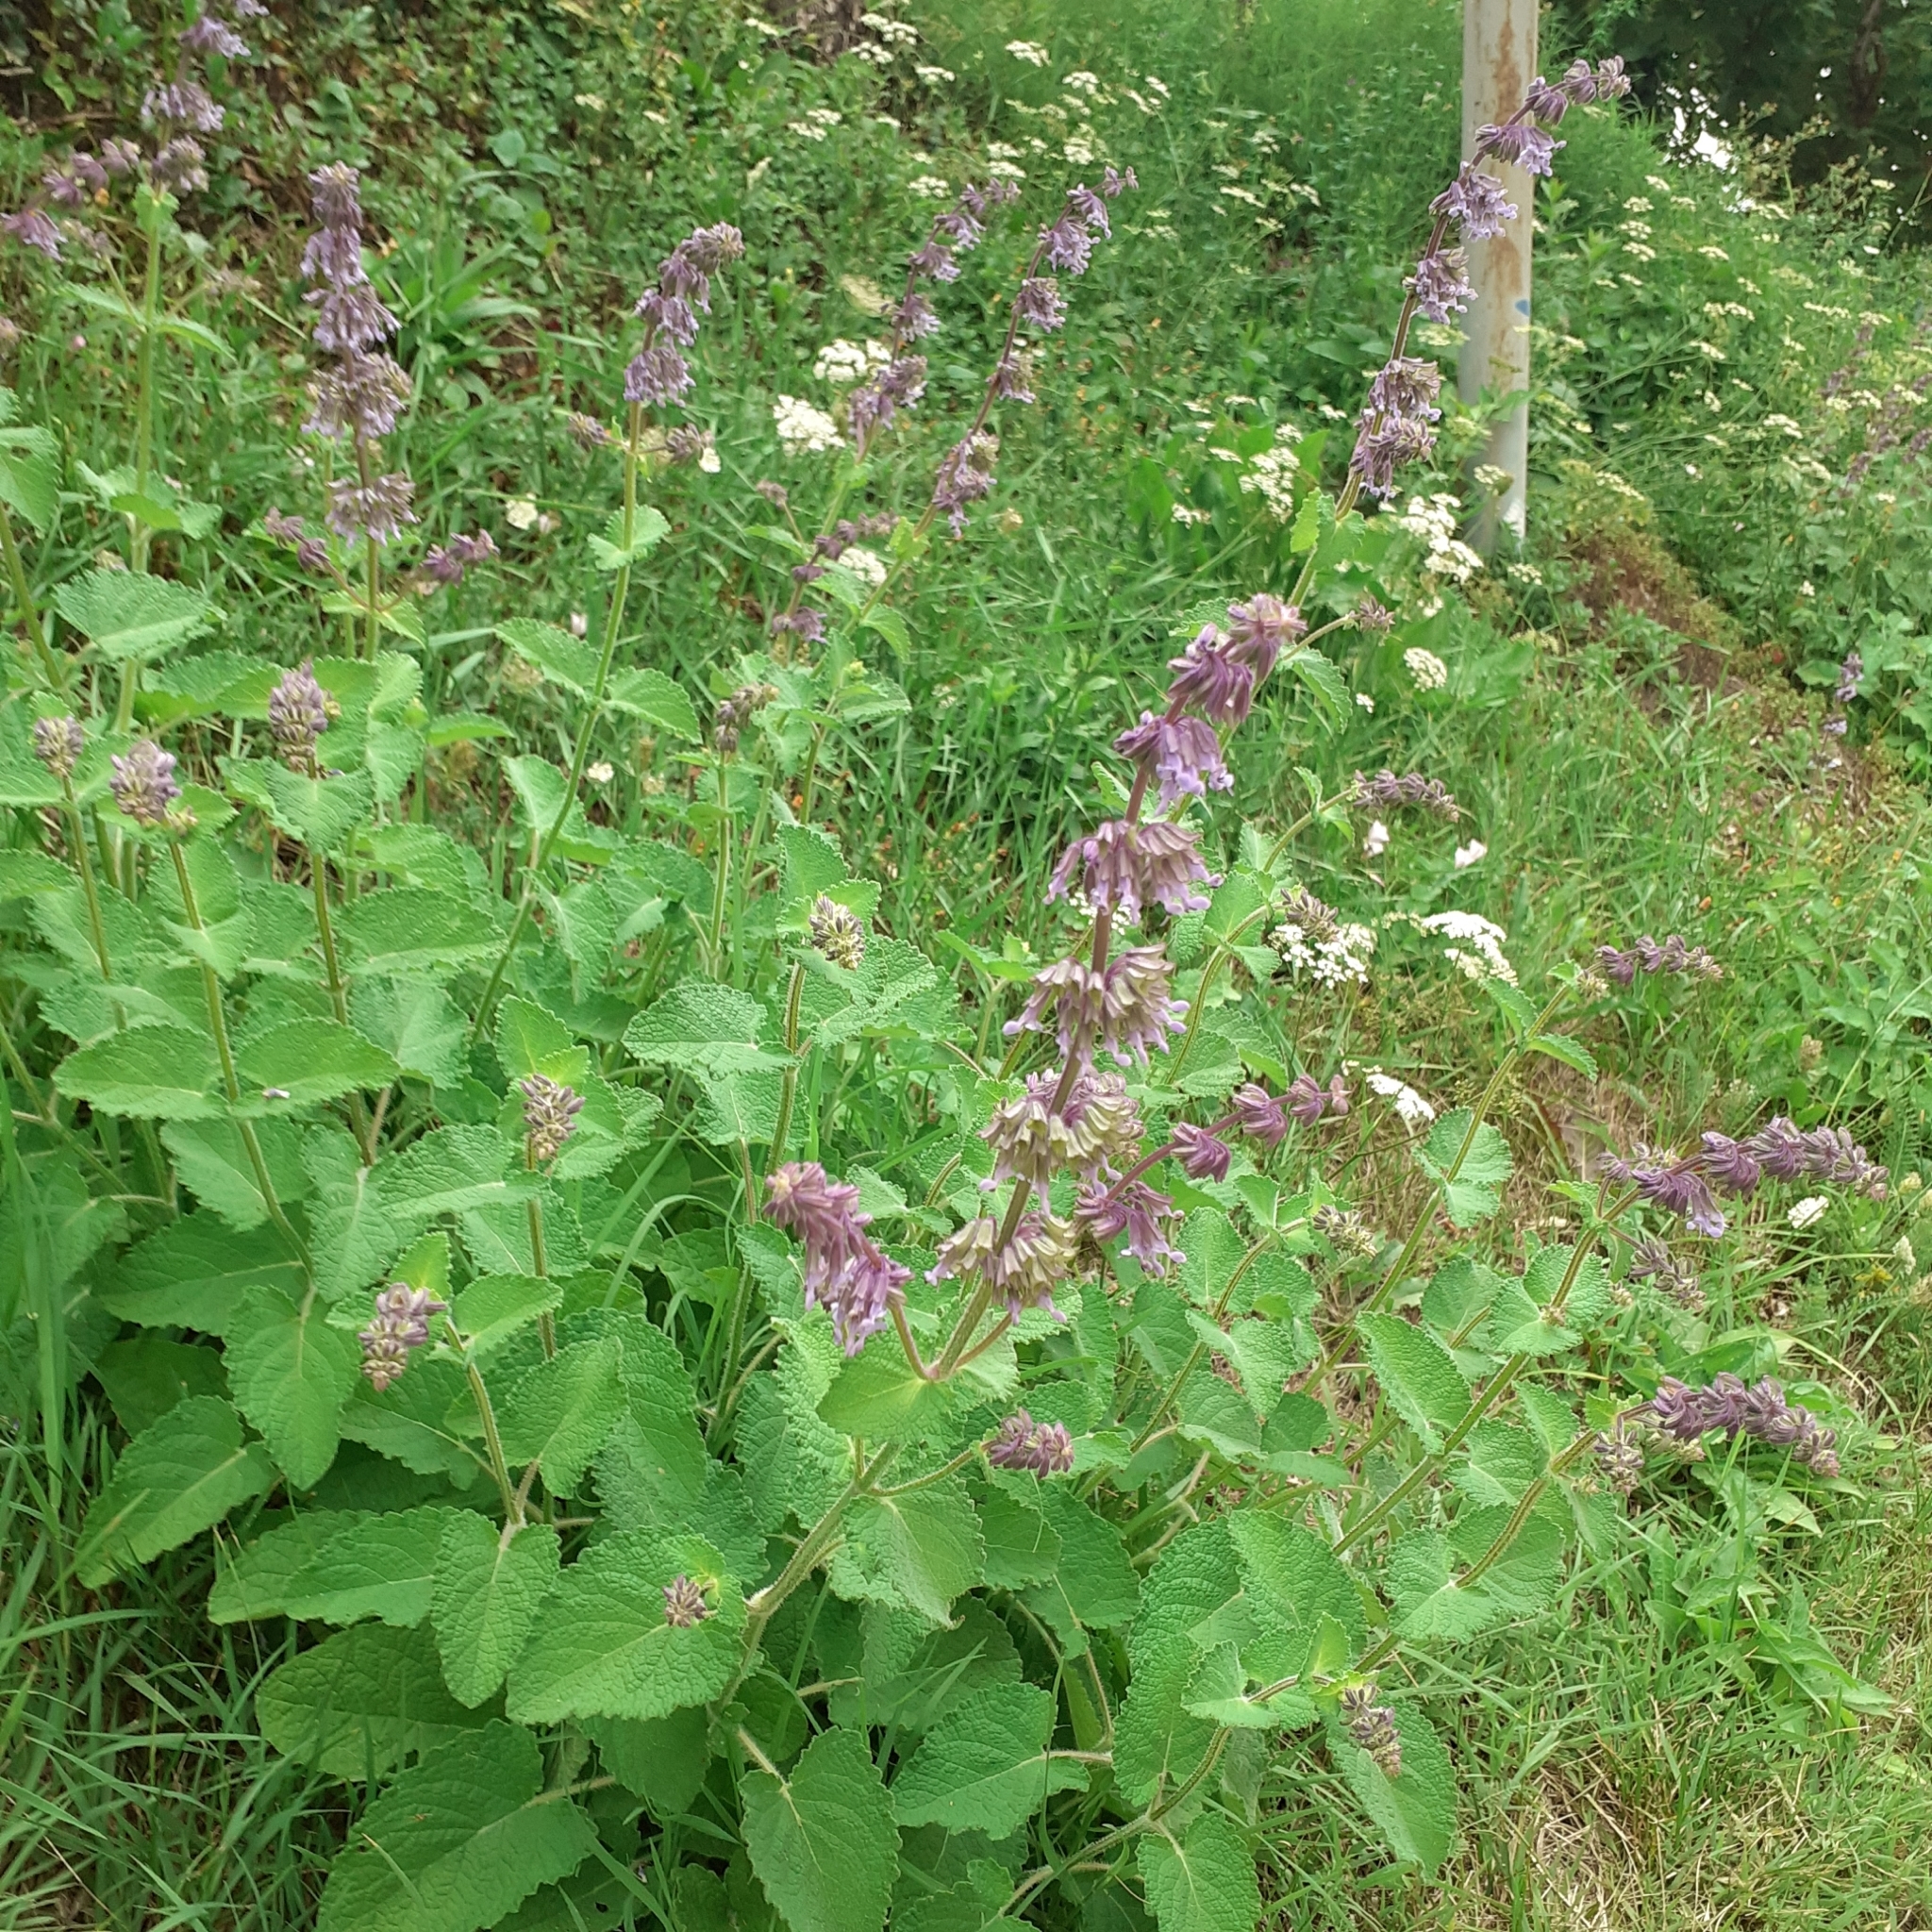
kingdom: Plantae
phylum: Tracheophyta
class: Magnoliopsida
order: Lamiales
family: Lamiaceae
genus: Salvia
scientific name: Salvia verticillata
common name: Whorled clary
